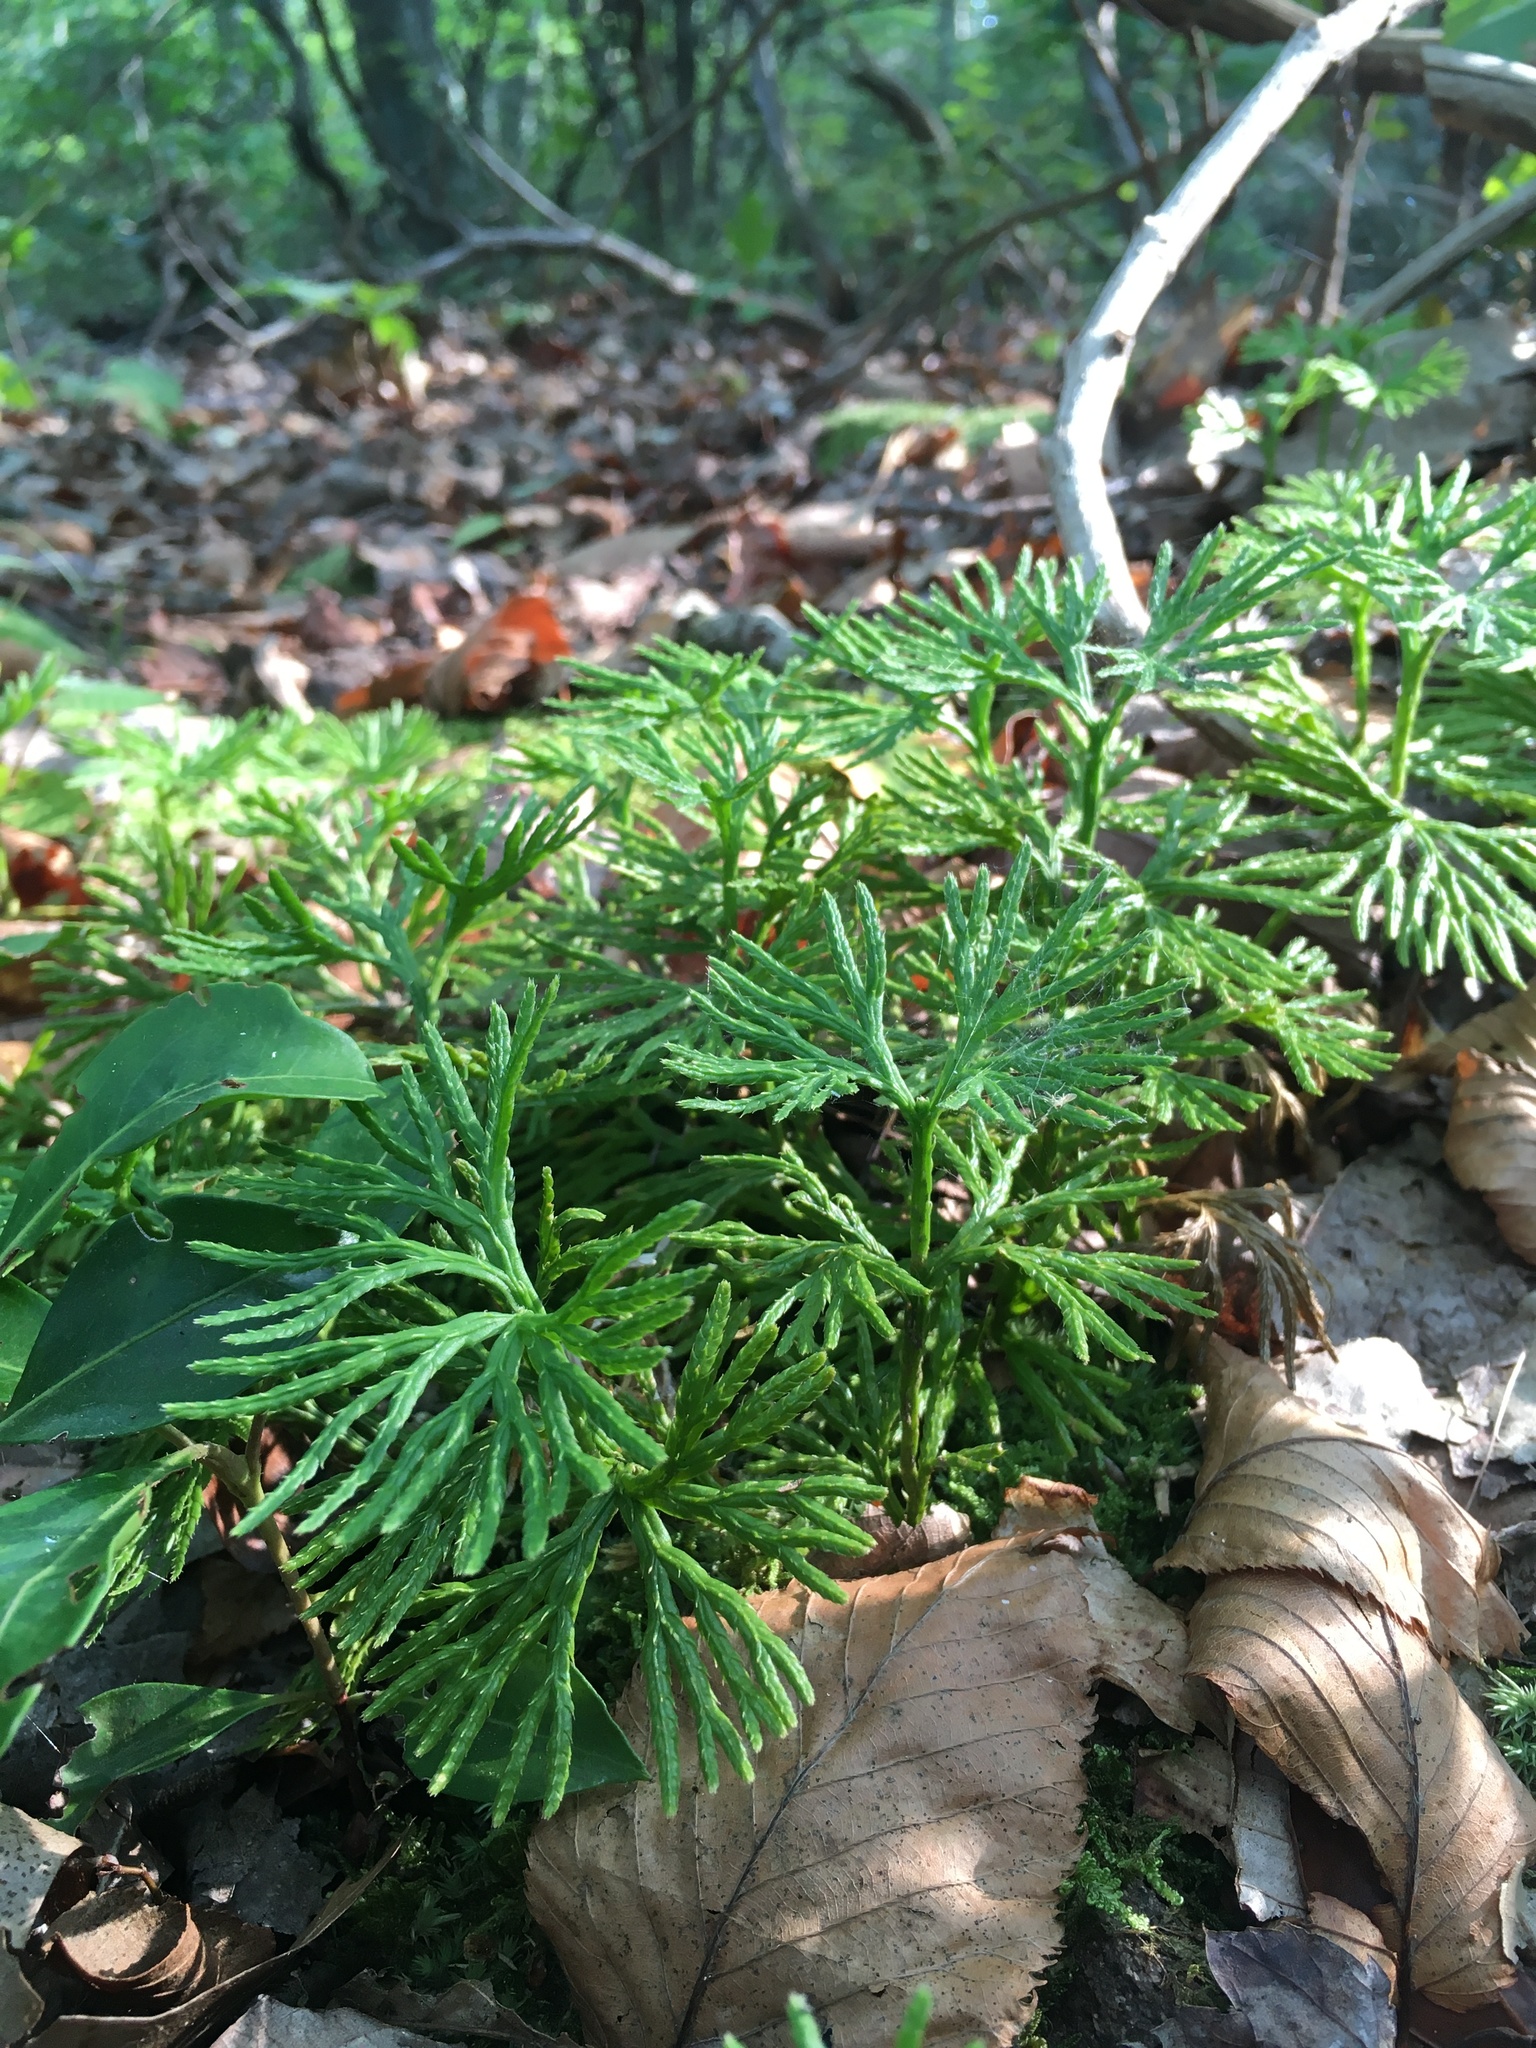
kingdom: Plantae
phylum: Tracheophyta
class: Lycopodiopsida
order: Lycopodiales
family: Lycopodiaceae
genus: Diphasiastrum
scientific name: Diphasiastrum digitatum
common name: Southern running-pine
